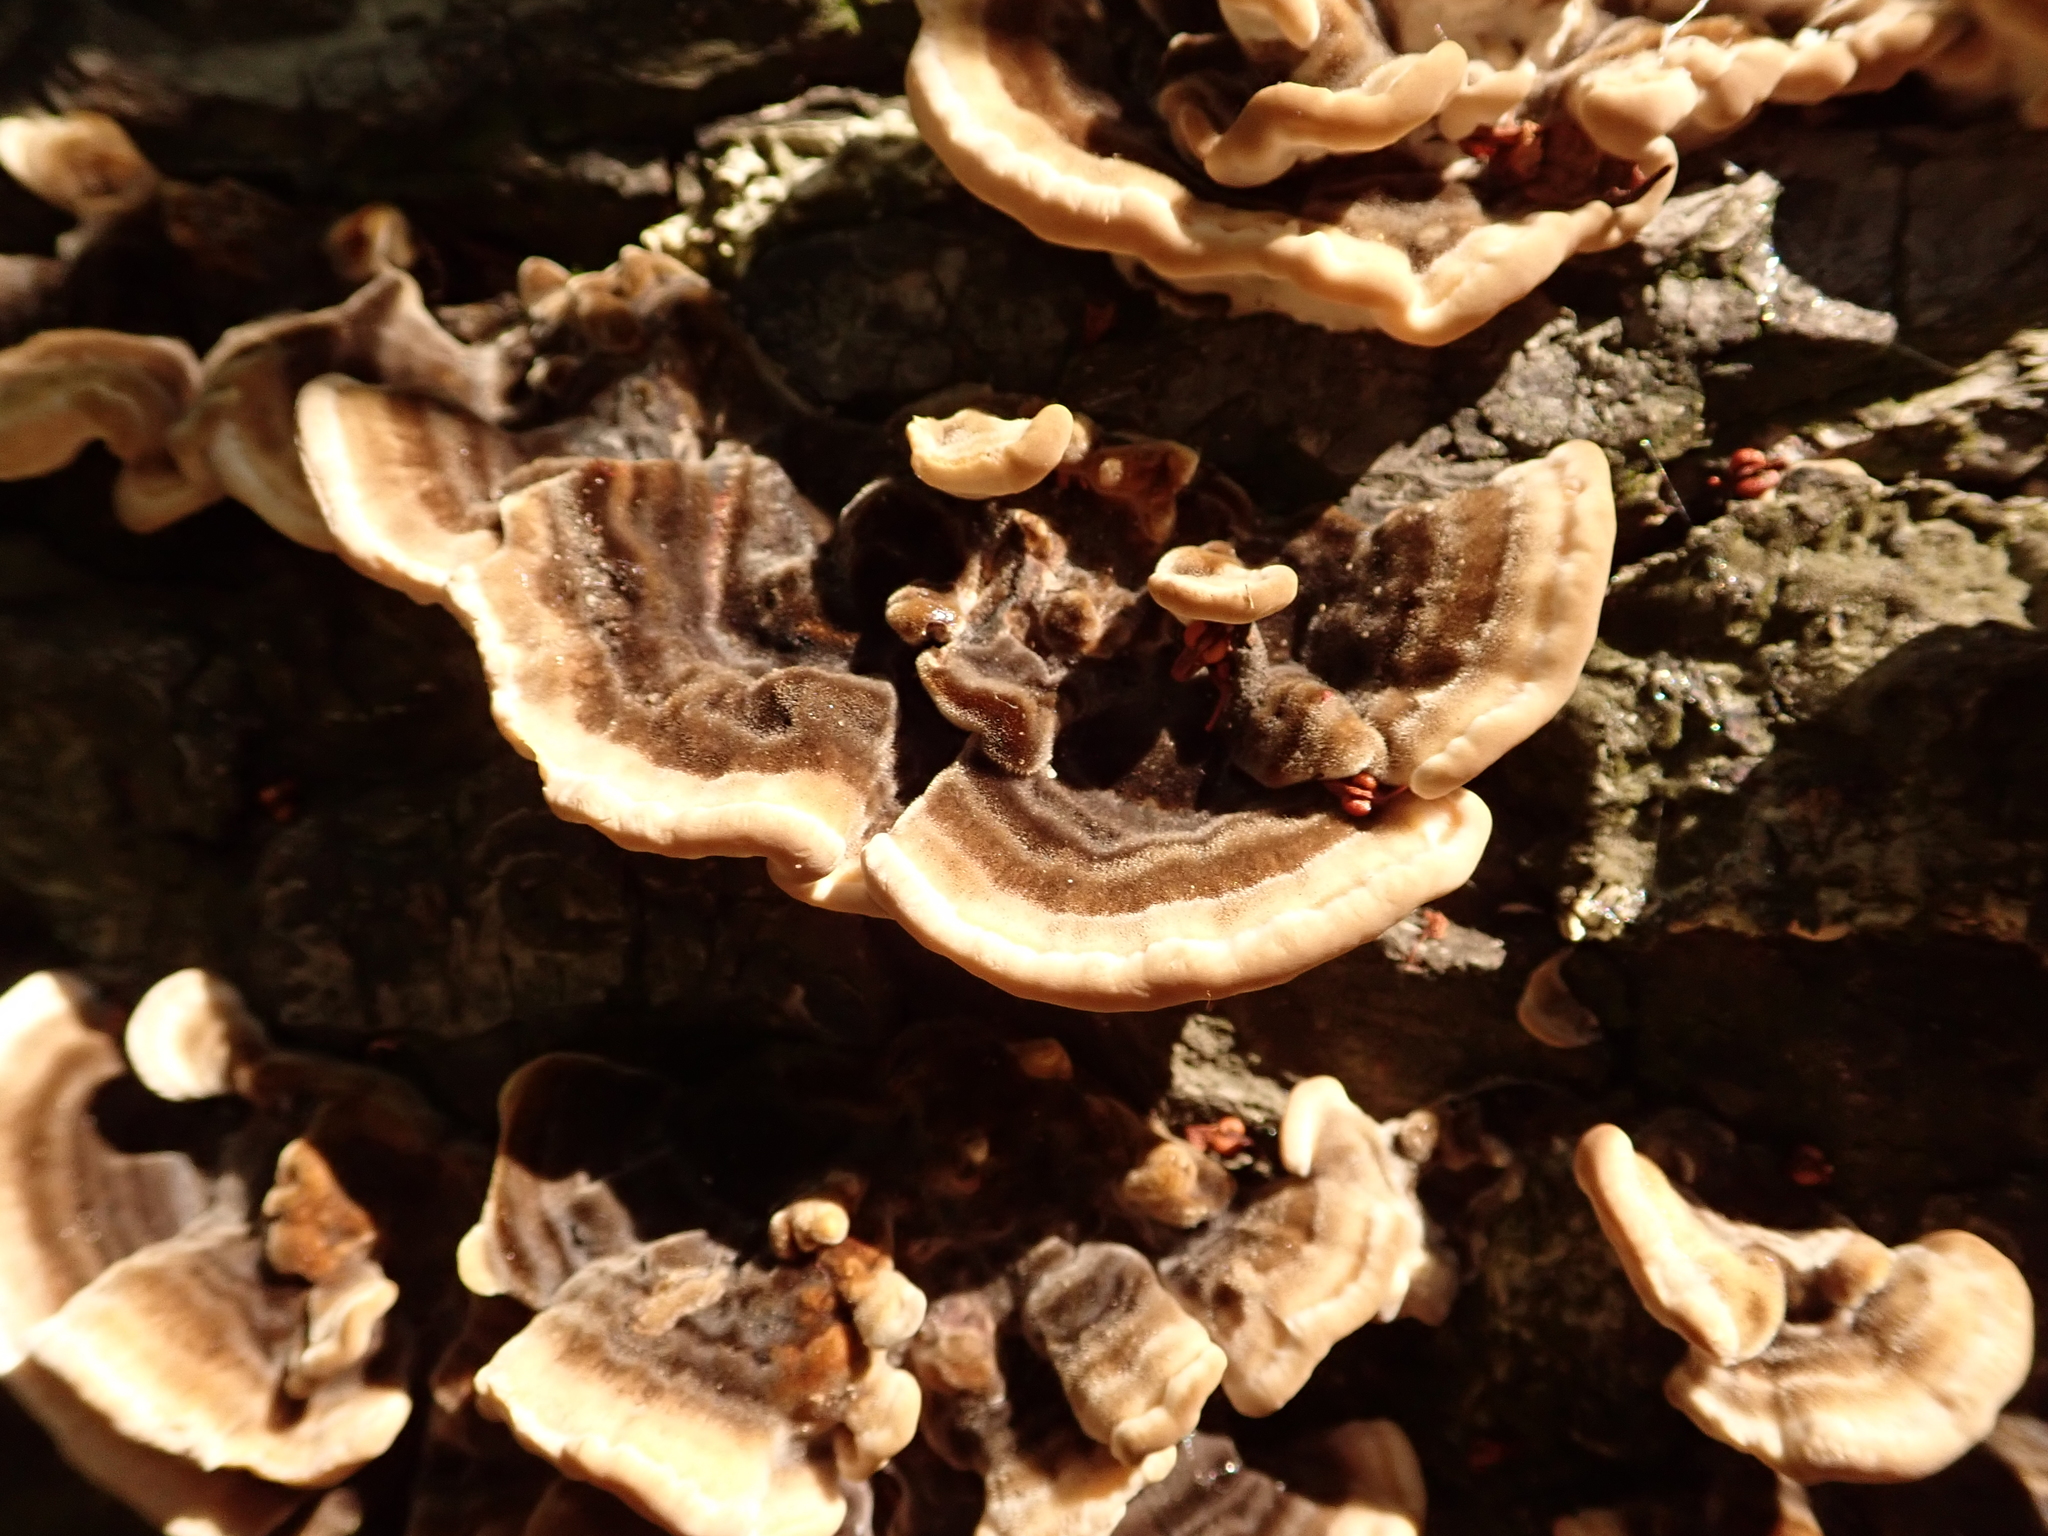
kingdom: Fungi
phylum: Basidiomycota
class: Agaricomycetes
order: Polyporales
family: Polyporaceae
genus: Trametes
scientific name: Trametes versicolor
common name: Turkeytail
